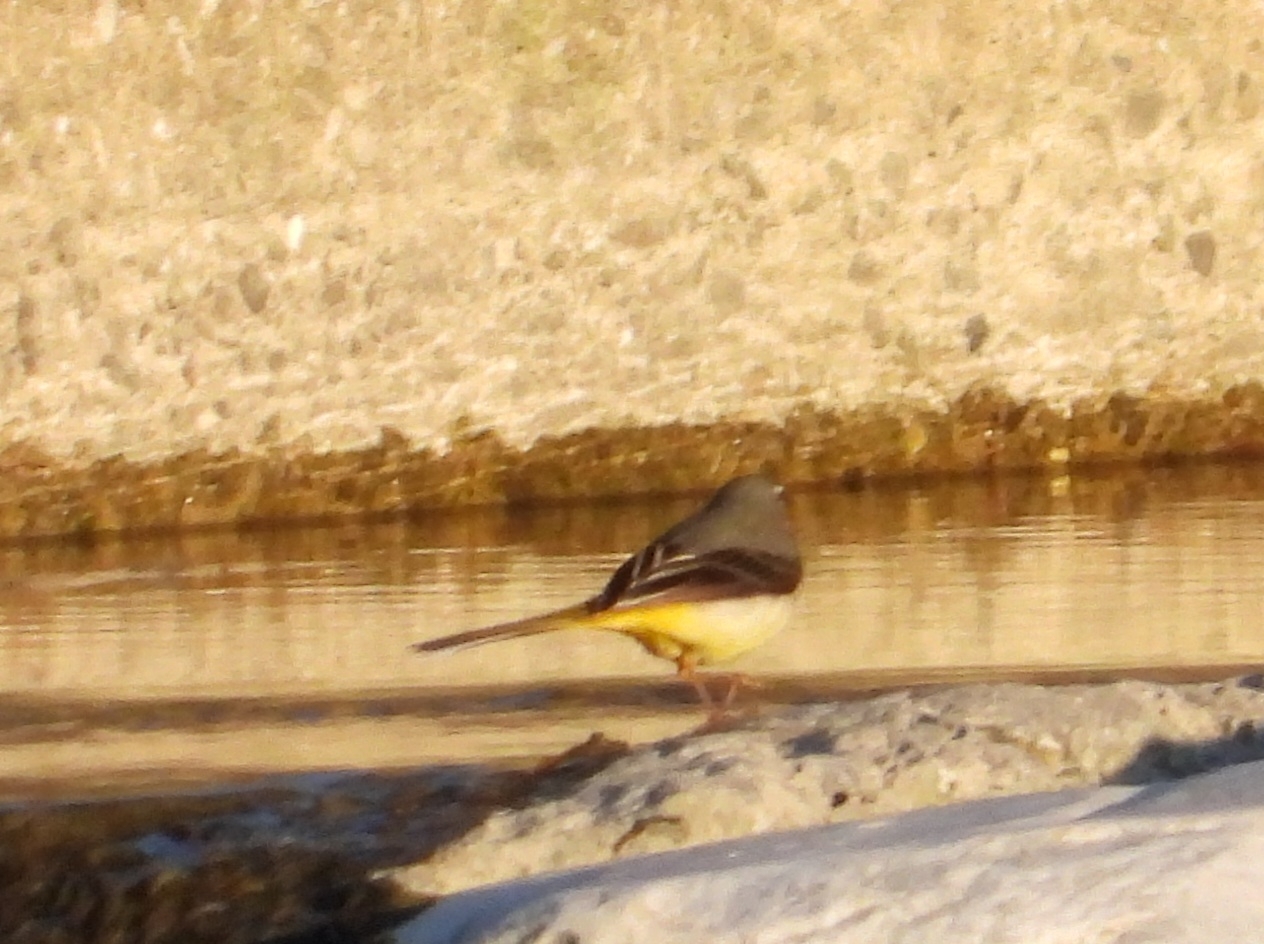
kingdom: Animalia
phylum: Chordata
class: Aves
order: Passeriformes
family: Motacillidae
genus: Motacilla
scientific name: Motacilla cinerea
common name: Grey wagtail
